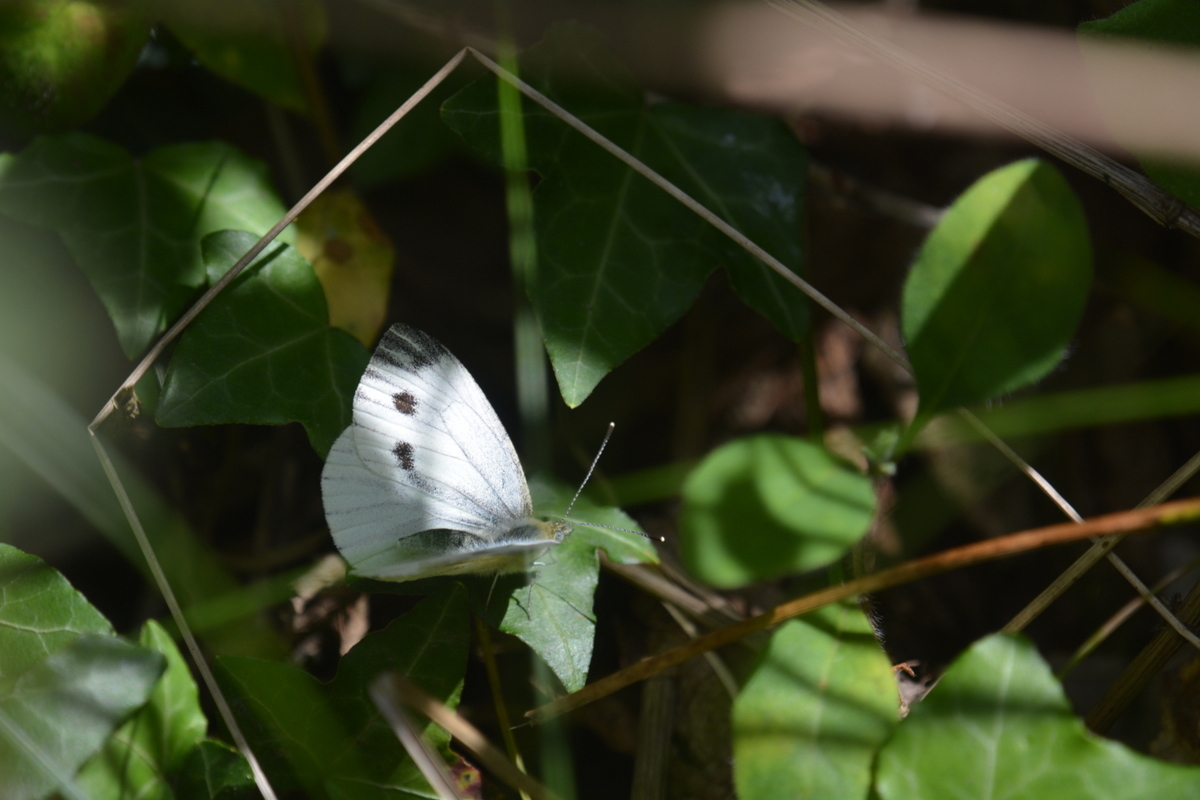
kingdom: Animalia
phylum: Arthropoda
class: Insecta
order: Lepidoptera
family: Pieridae
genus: Pieris
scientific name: Pieris napi
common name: Green-veined white
